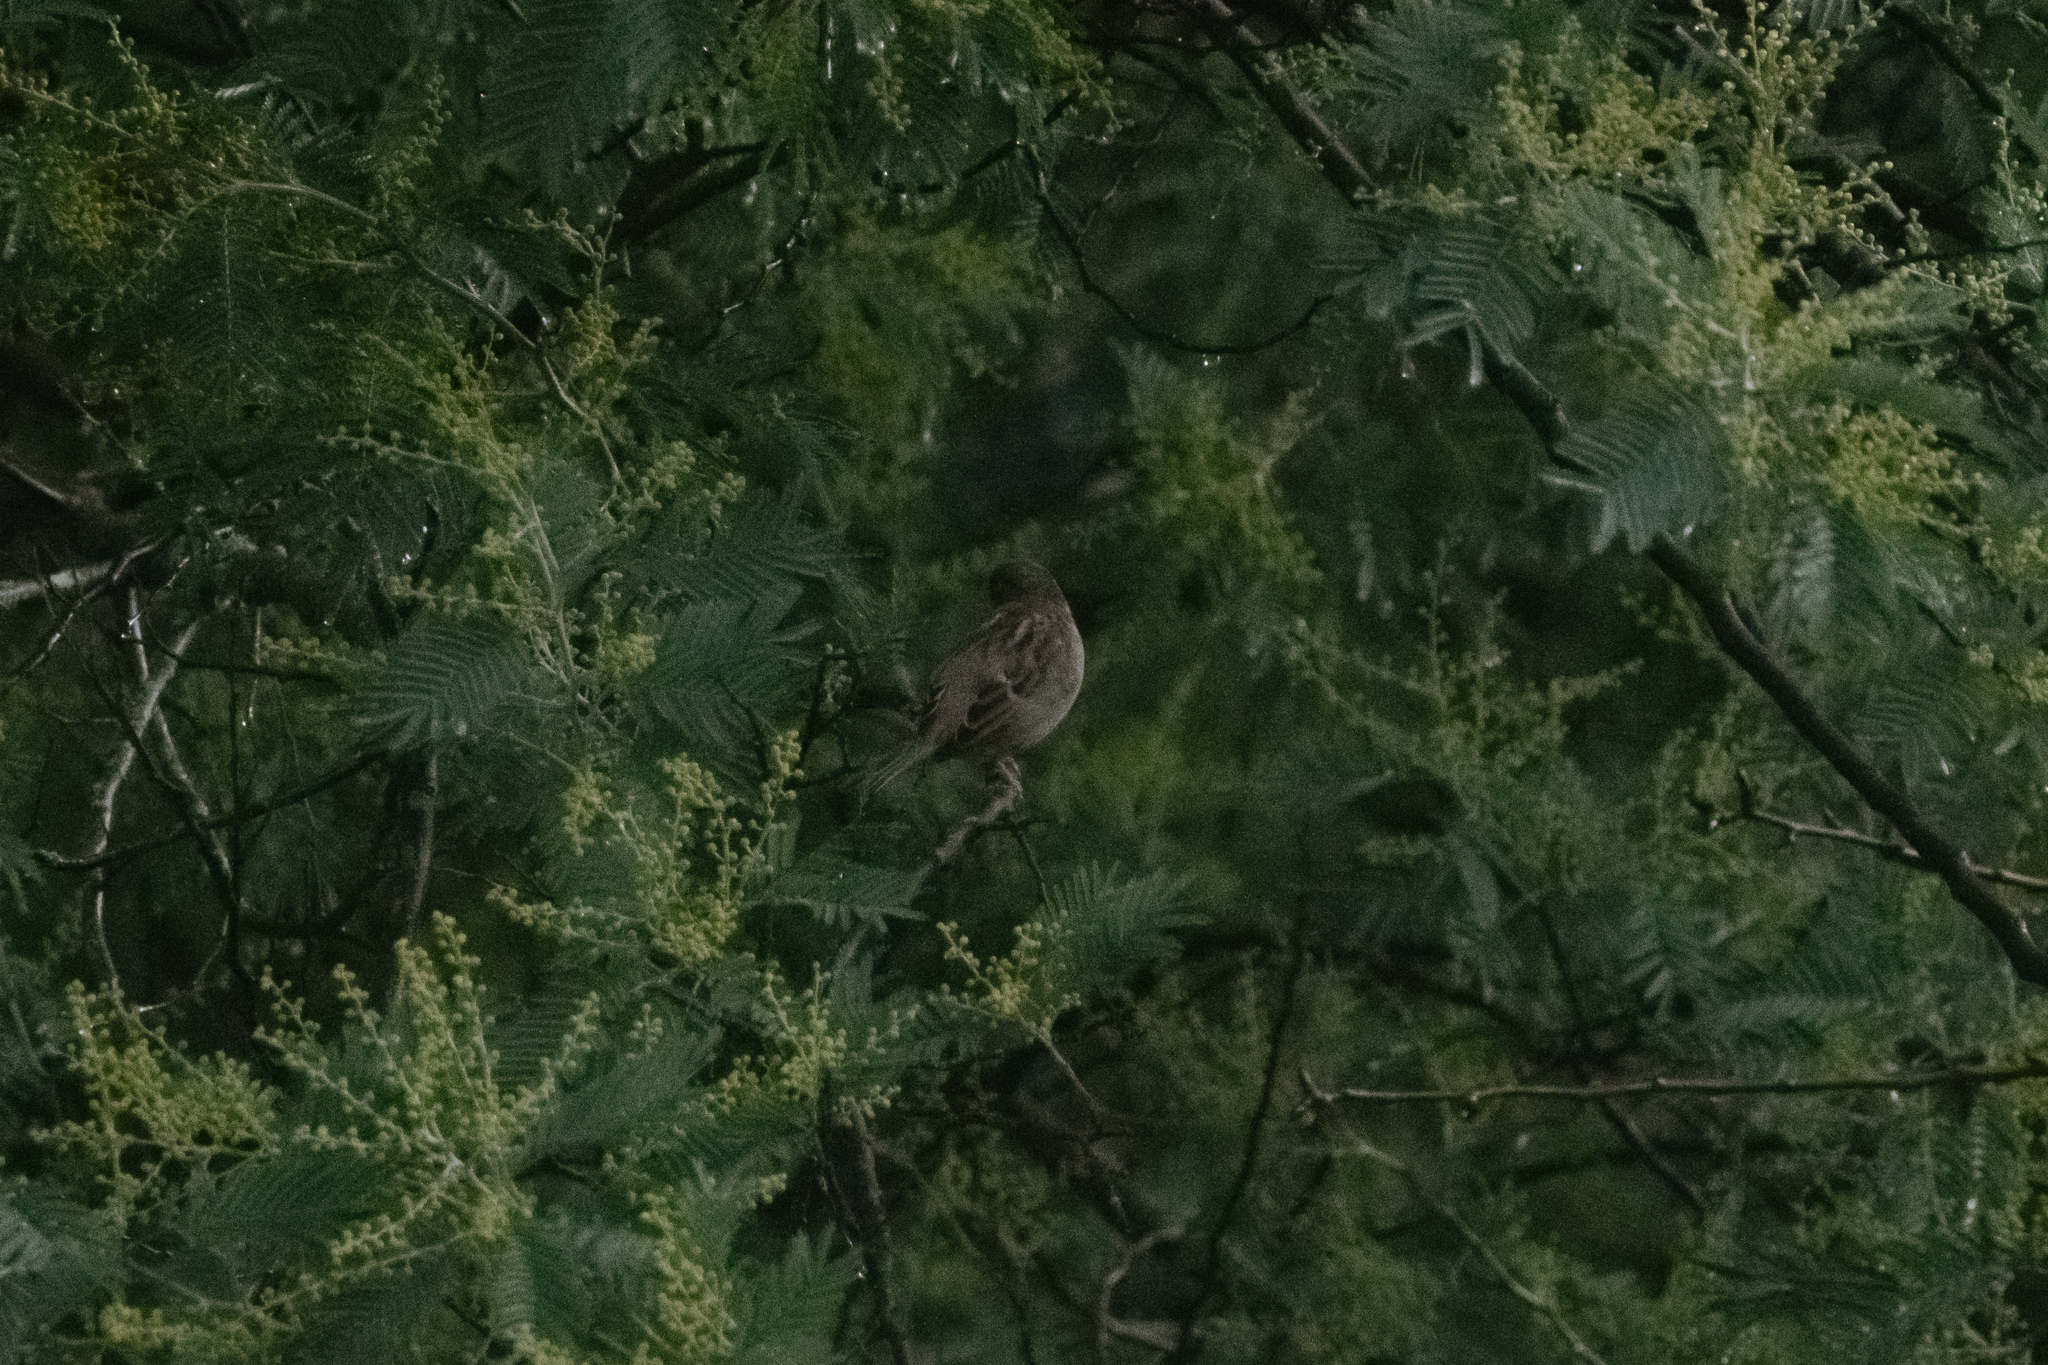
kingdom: Animalia
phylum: Chordata
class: Aves
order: Passeriformes
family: Passeridae
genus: Passer
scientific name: Passer domesticus
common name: House sparrow
